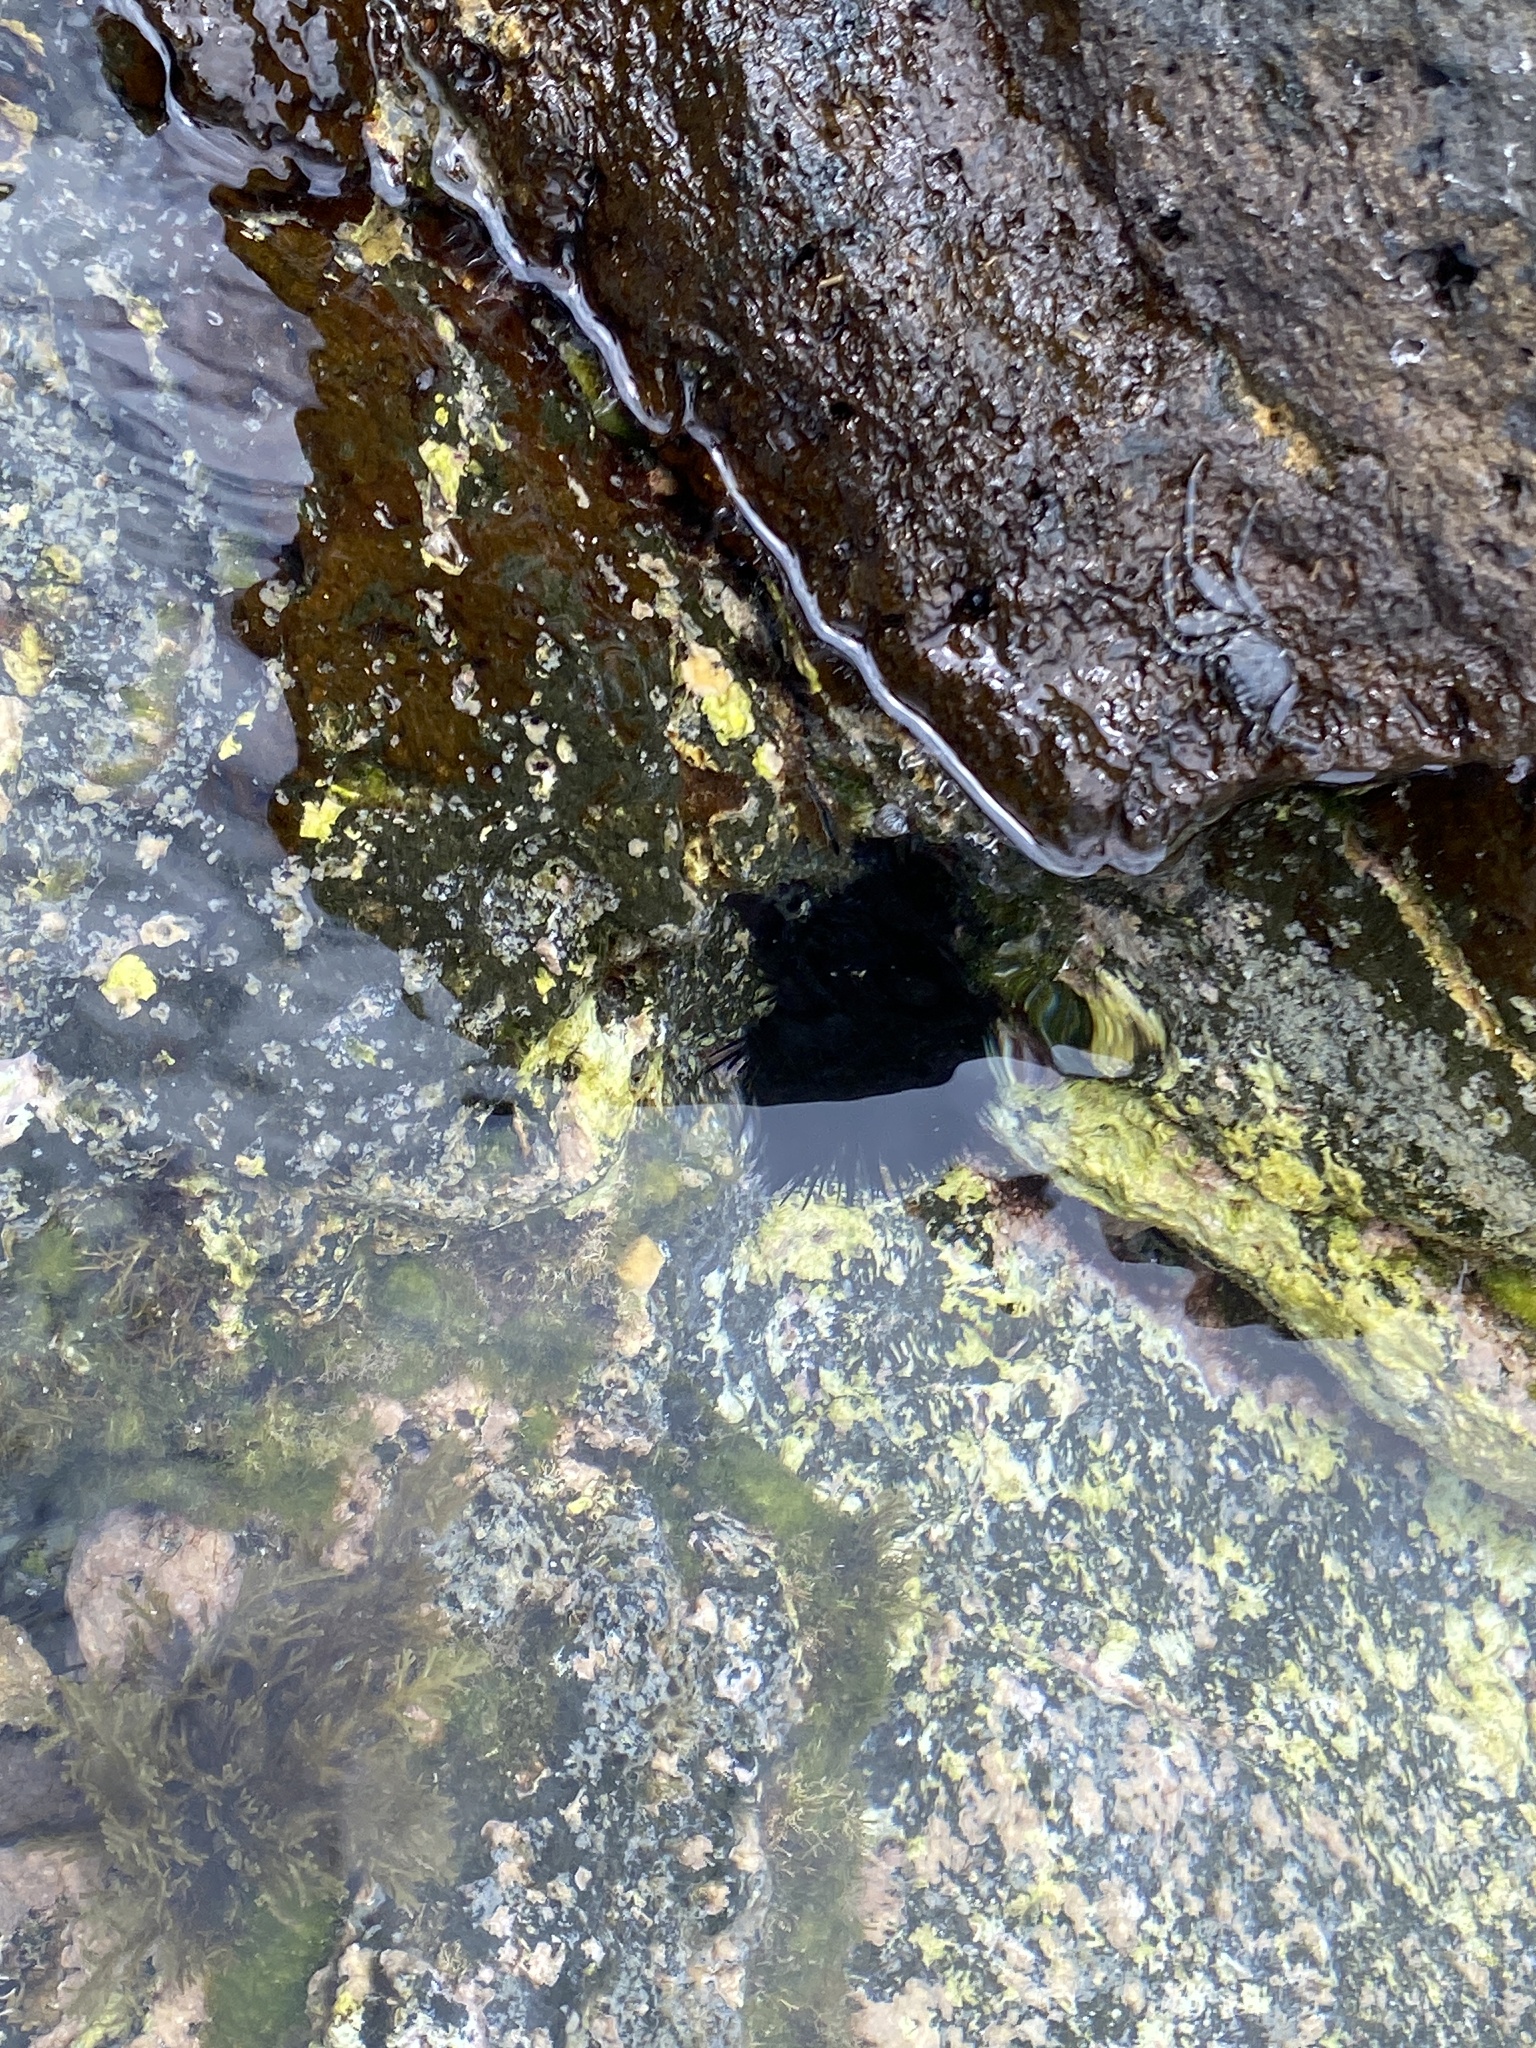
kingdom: Animalia
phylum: Echinodermata
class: Echinoidea
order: Arbacioida
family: Arbaciidae
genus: Arbacia
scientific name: Arbacia lixula
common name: Black sea urchin
